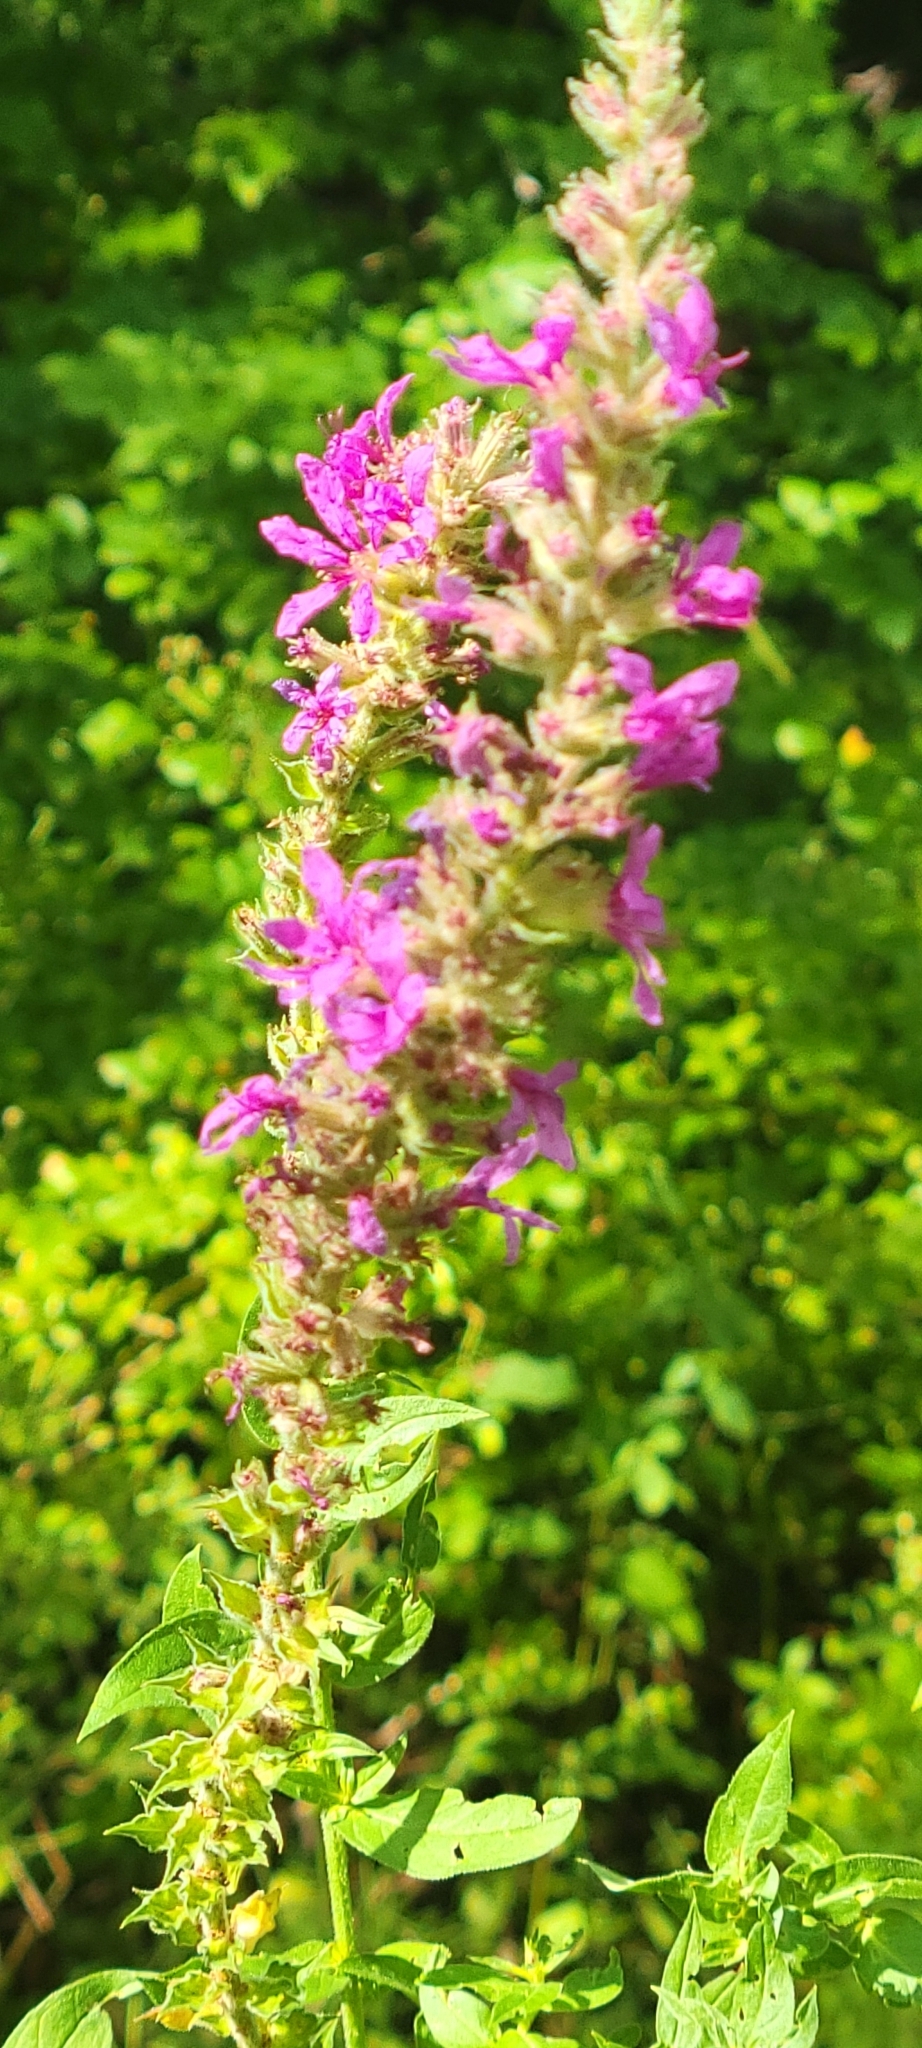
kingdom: Plantae
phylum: Tracheophyta
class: Magnoliopsida
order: Myrtales
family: Lythraceae
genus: Lythrum
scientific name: Lythrum salicaria
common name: Purple loosestrife
